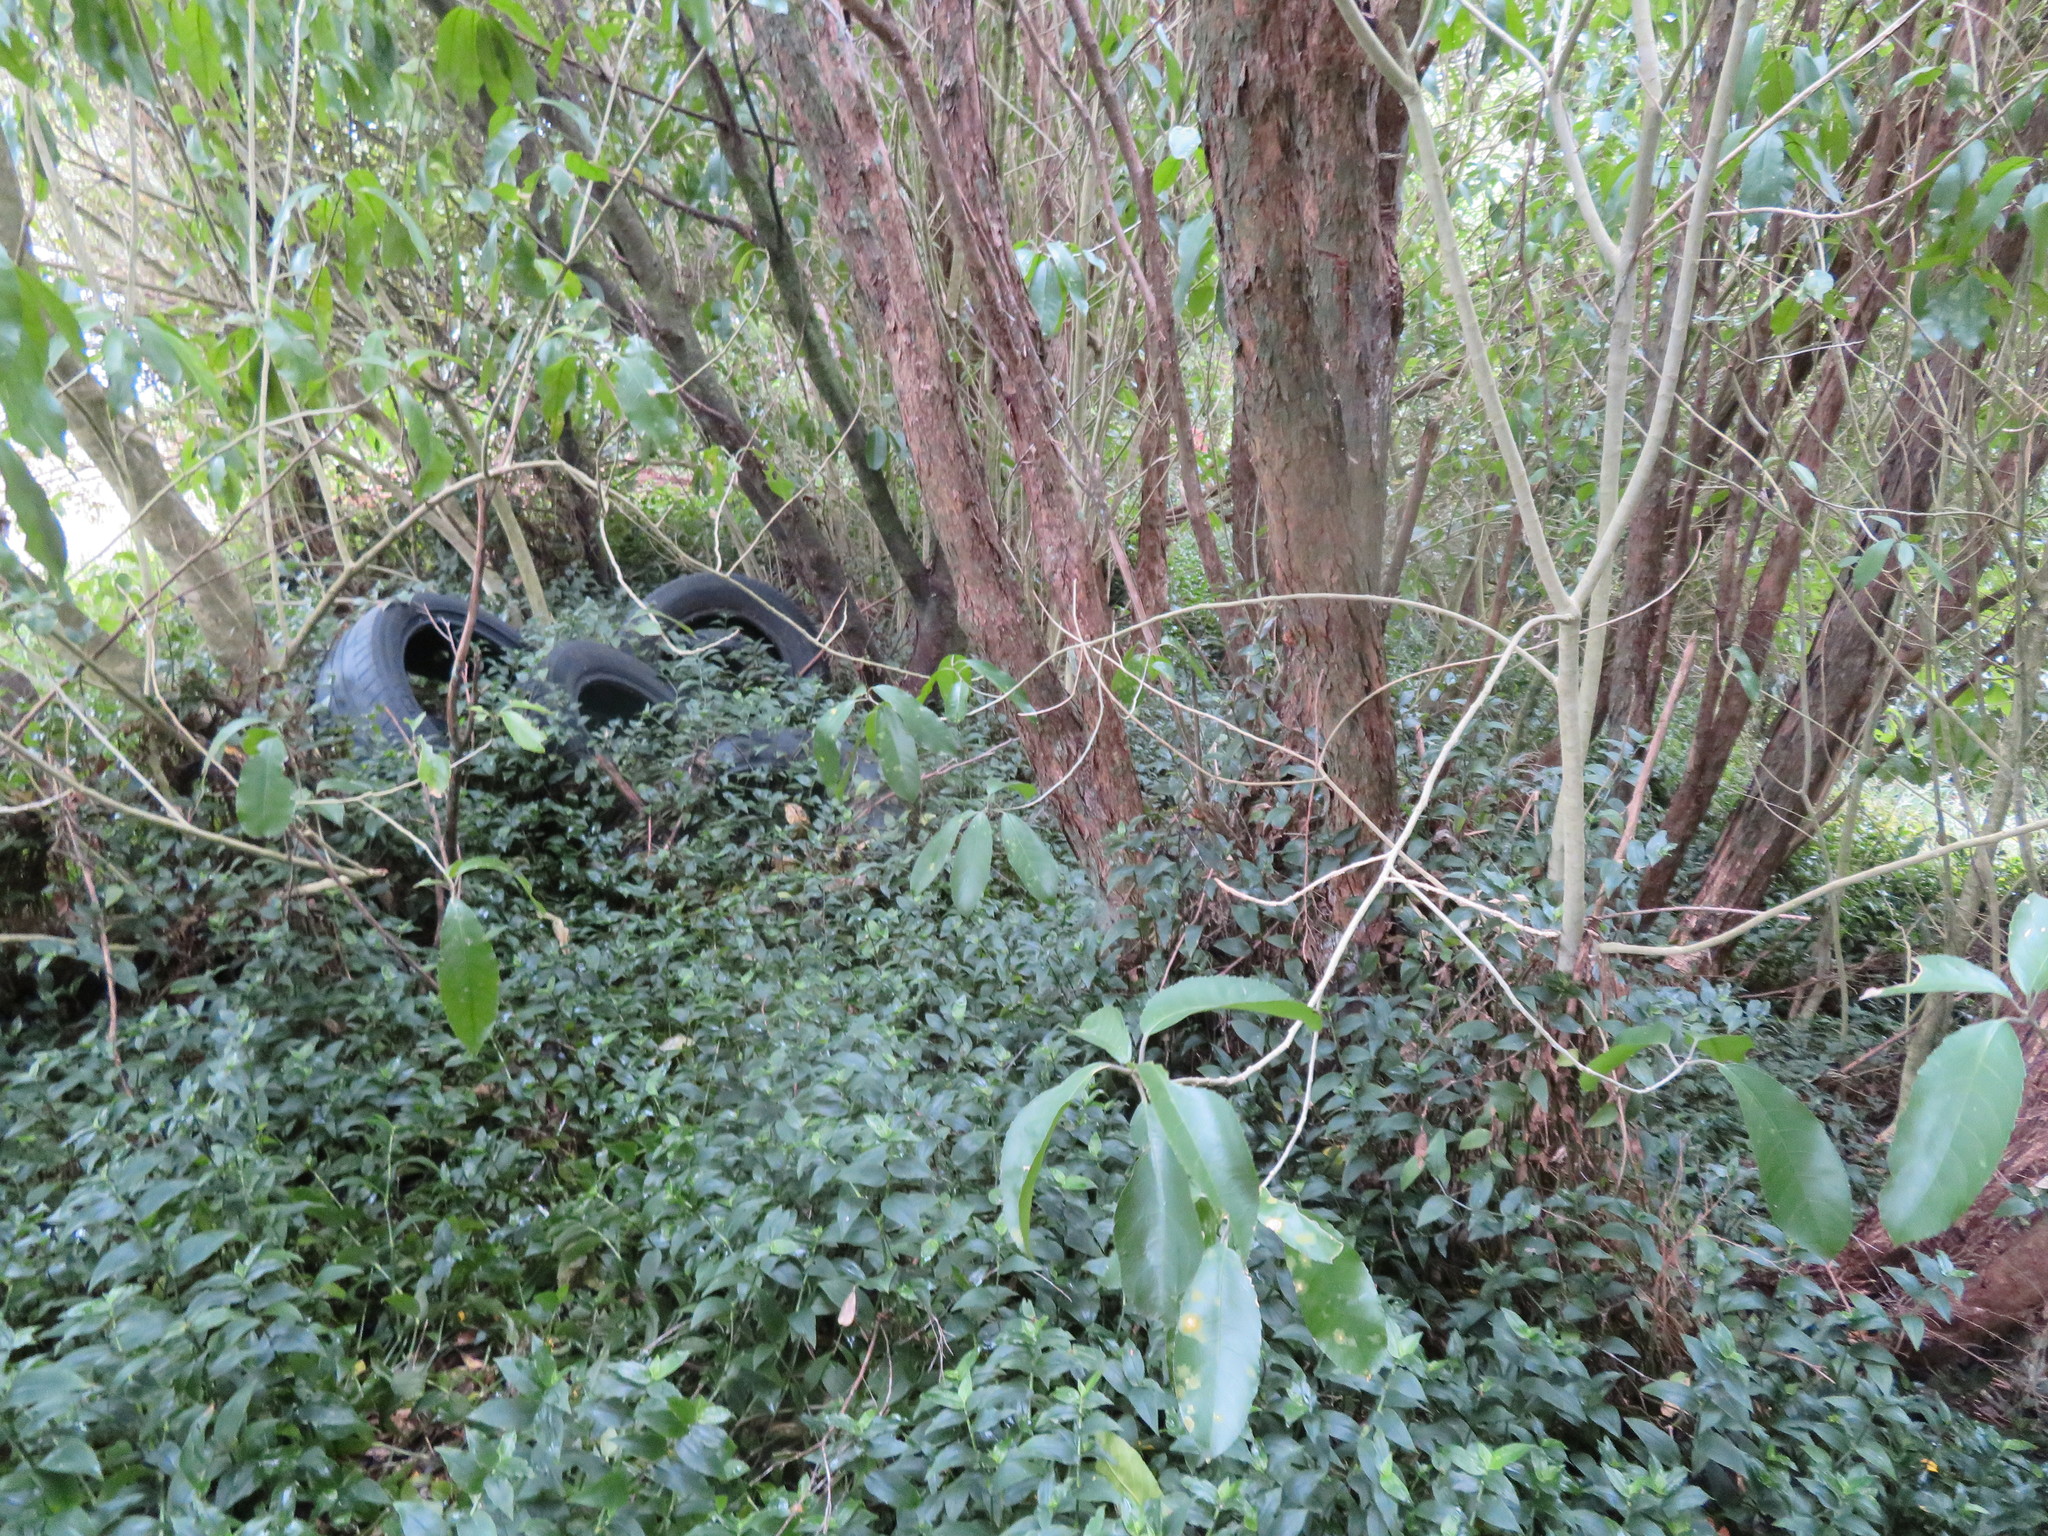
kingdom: Plantae
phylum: Tracheophyta
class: Magnoliopsida
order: Malpighiales
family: Violaceae
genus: Melicytus
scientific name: Melicytus ramiflorus
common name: Mahoe
